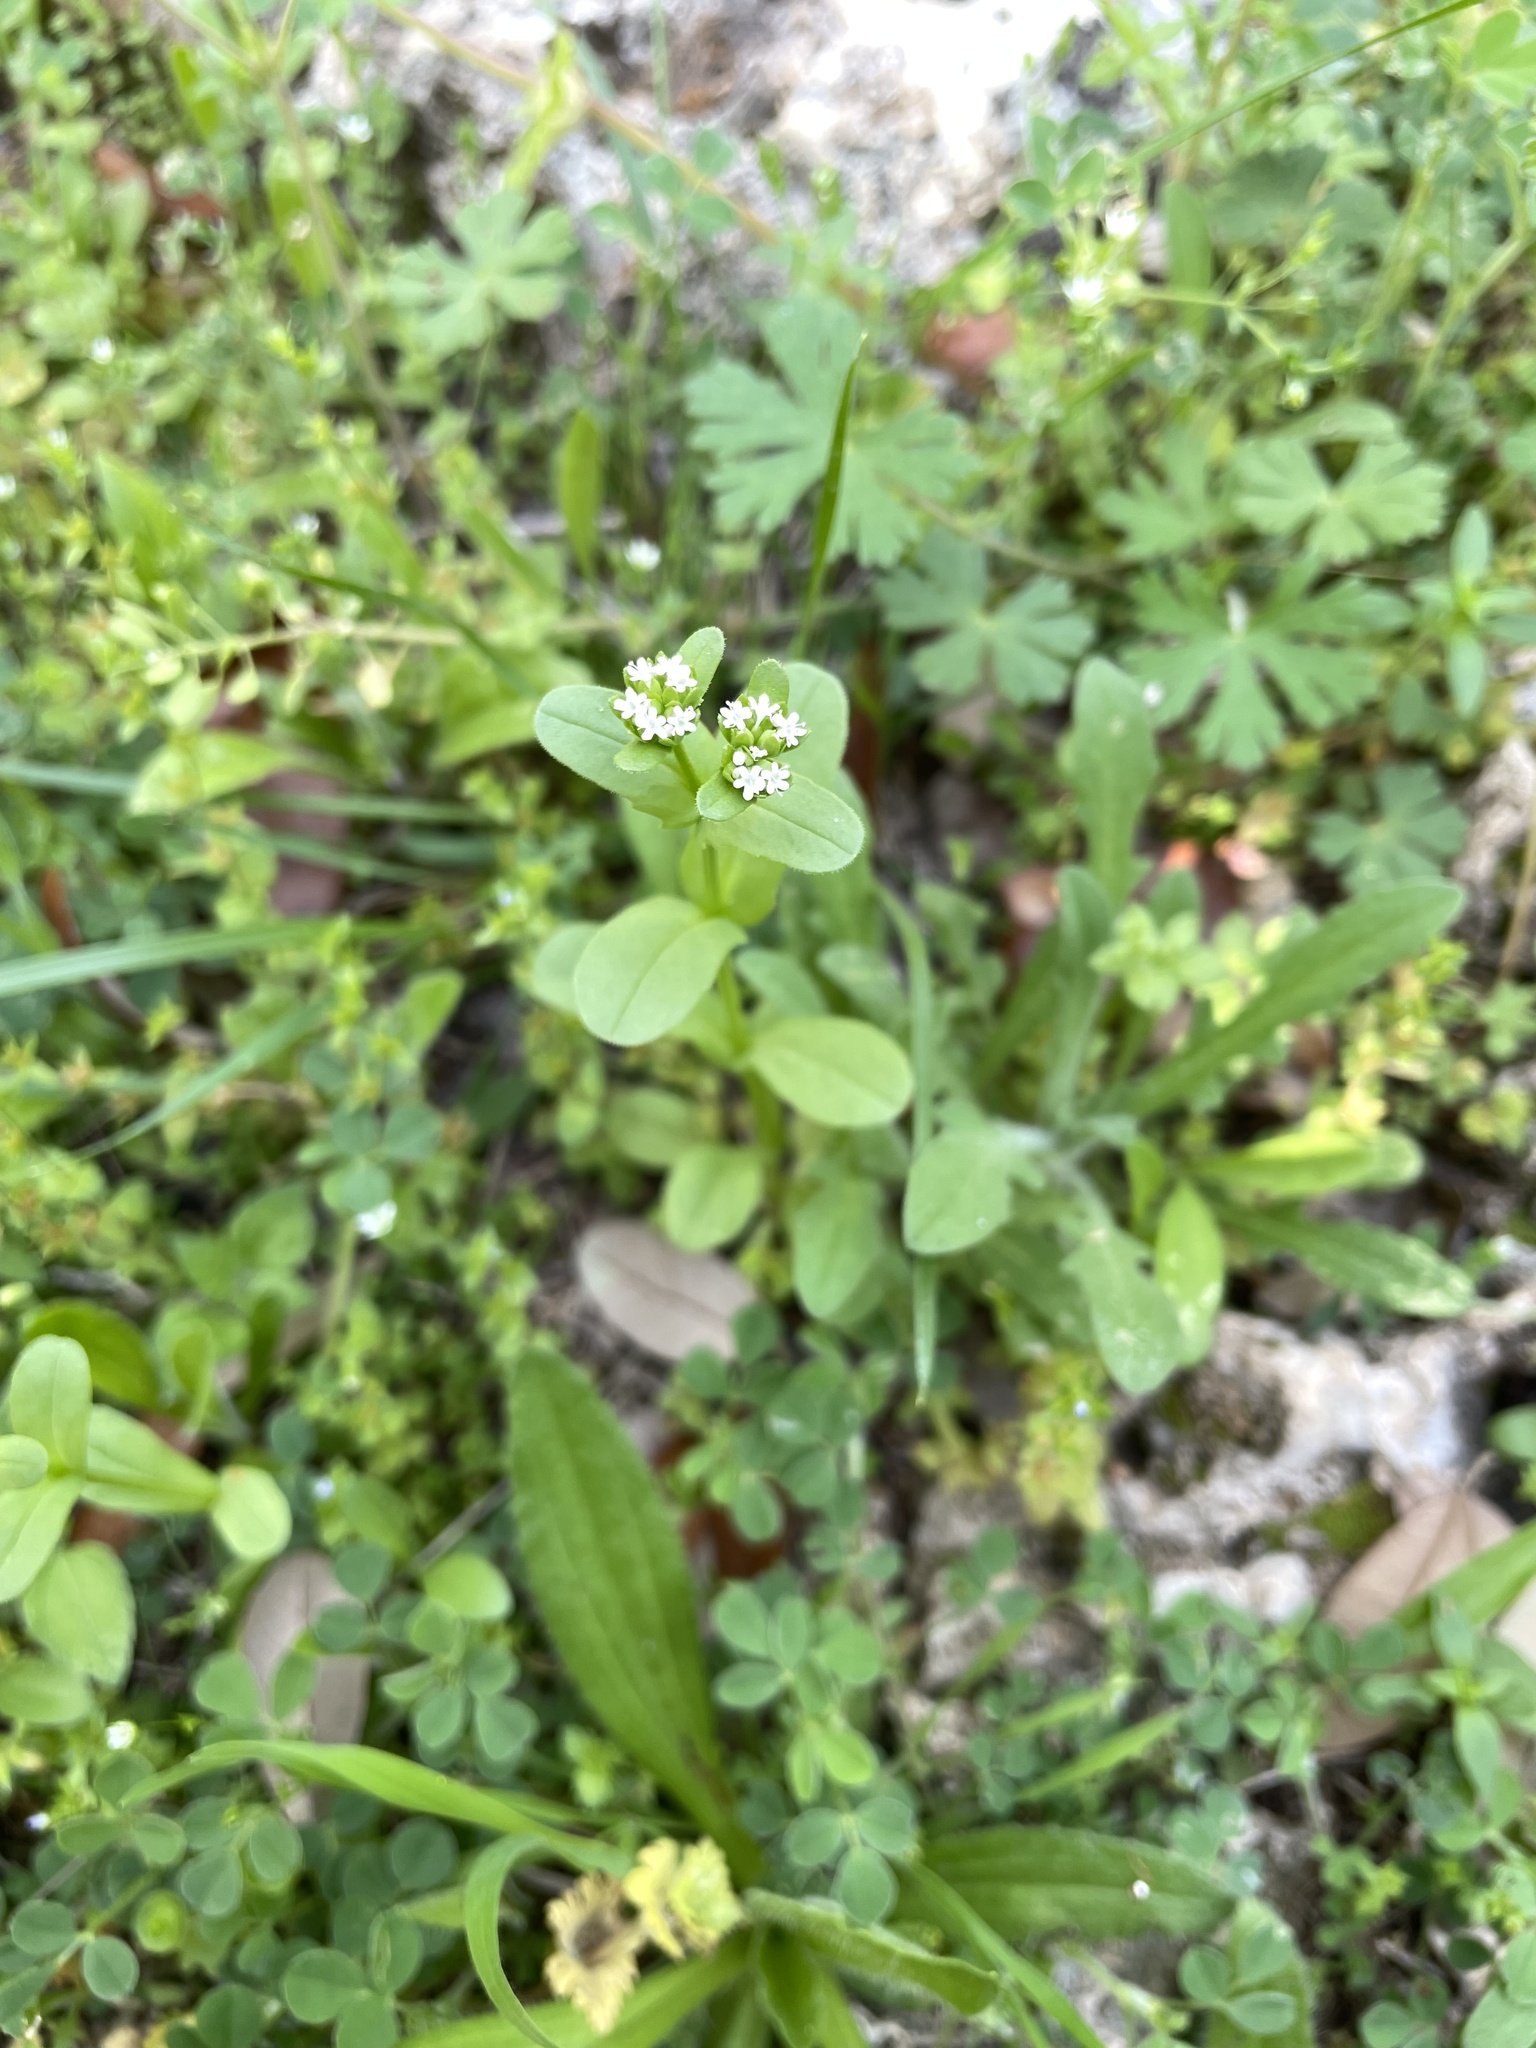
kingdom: Plantae
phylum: Tracheophyta
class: Magnoliopsida
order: Dipsacales
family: Caprifoliaceae
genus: Valerianella
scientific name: Valerianella radiata
